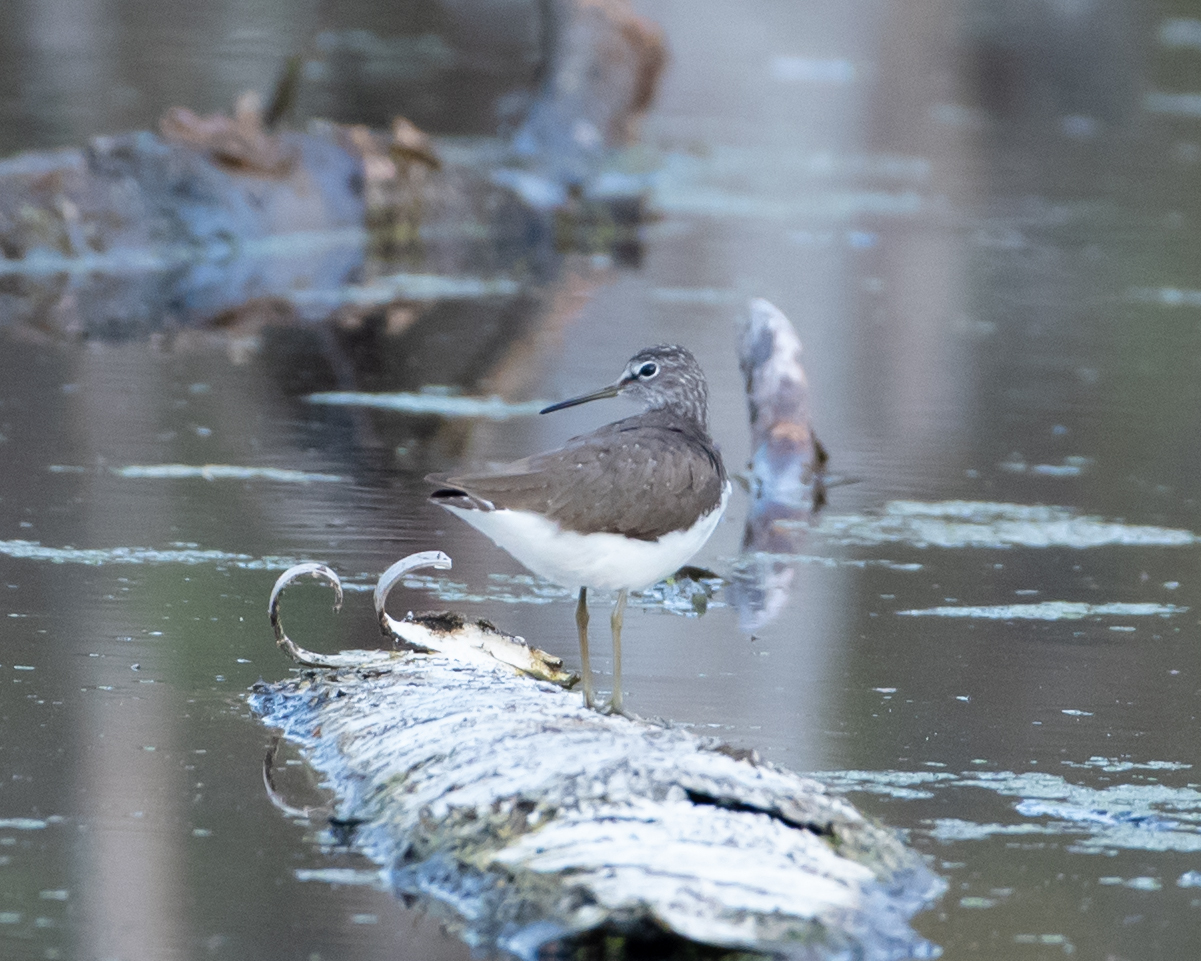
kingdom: Animalia
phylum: Chordata
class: Aves
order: Charadriiformes
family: Scolopacidae
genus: Tringa
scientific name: Tringa ochropus
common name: Green sandpiper
